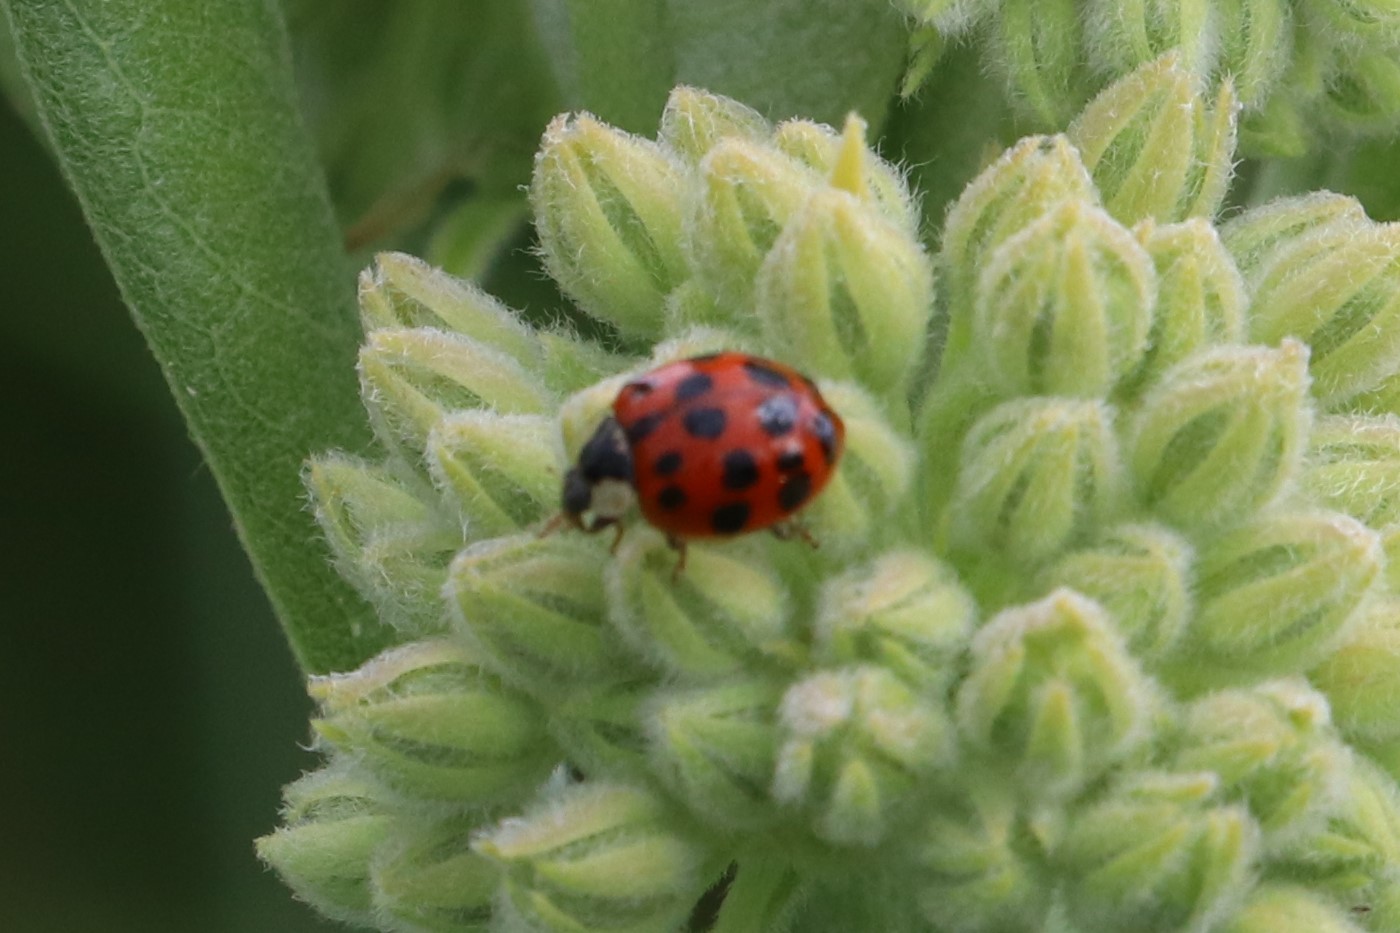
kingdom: Animalia
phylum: Arthropoda
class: Insecta
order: Coleoptera
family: Coccinellidae
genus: Harmonia
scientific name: Harmonia axyridis
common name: Harlequin ladybird
